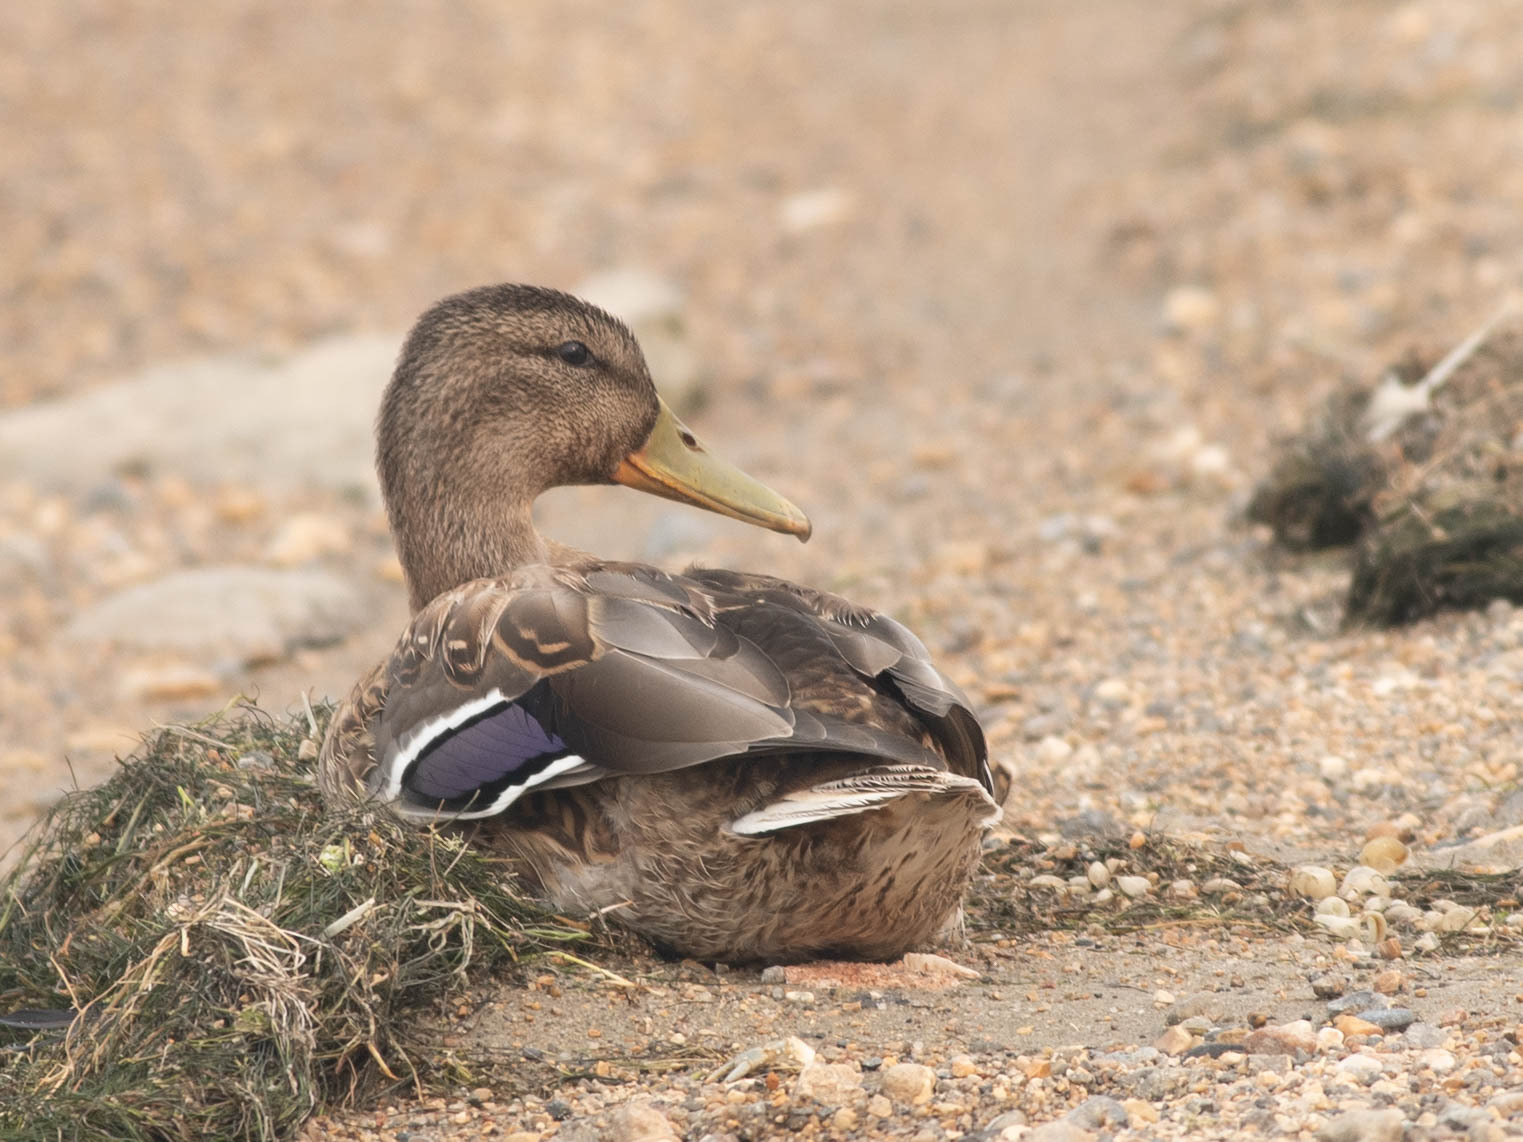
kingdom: Animalia
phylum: Chordata
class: Aves
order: Anseriformes
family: Anatidae
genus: Anas
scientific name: Anas platyrhynchos
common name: Mallard
